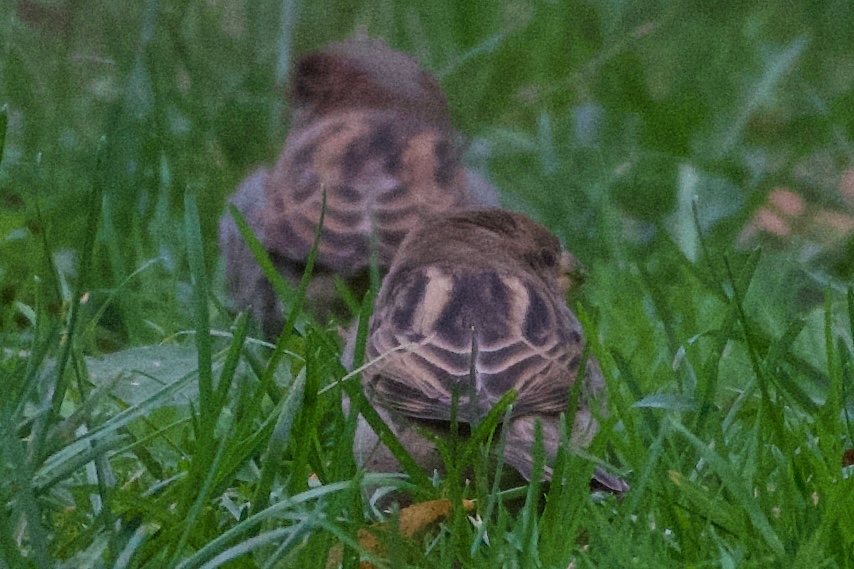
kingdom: Animalia
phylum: Chordata
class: Aves
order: Passeriformes
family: Passeridae
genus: Passer
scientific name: Passer domesticus
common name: House sparrow
